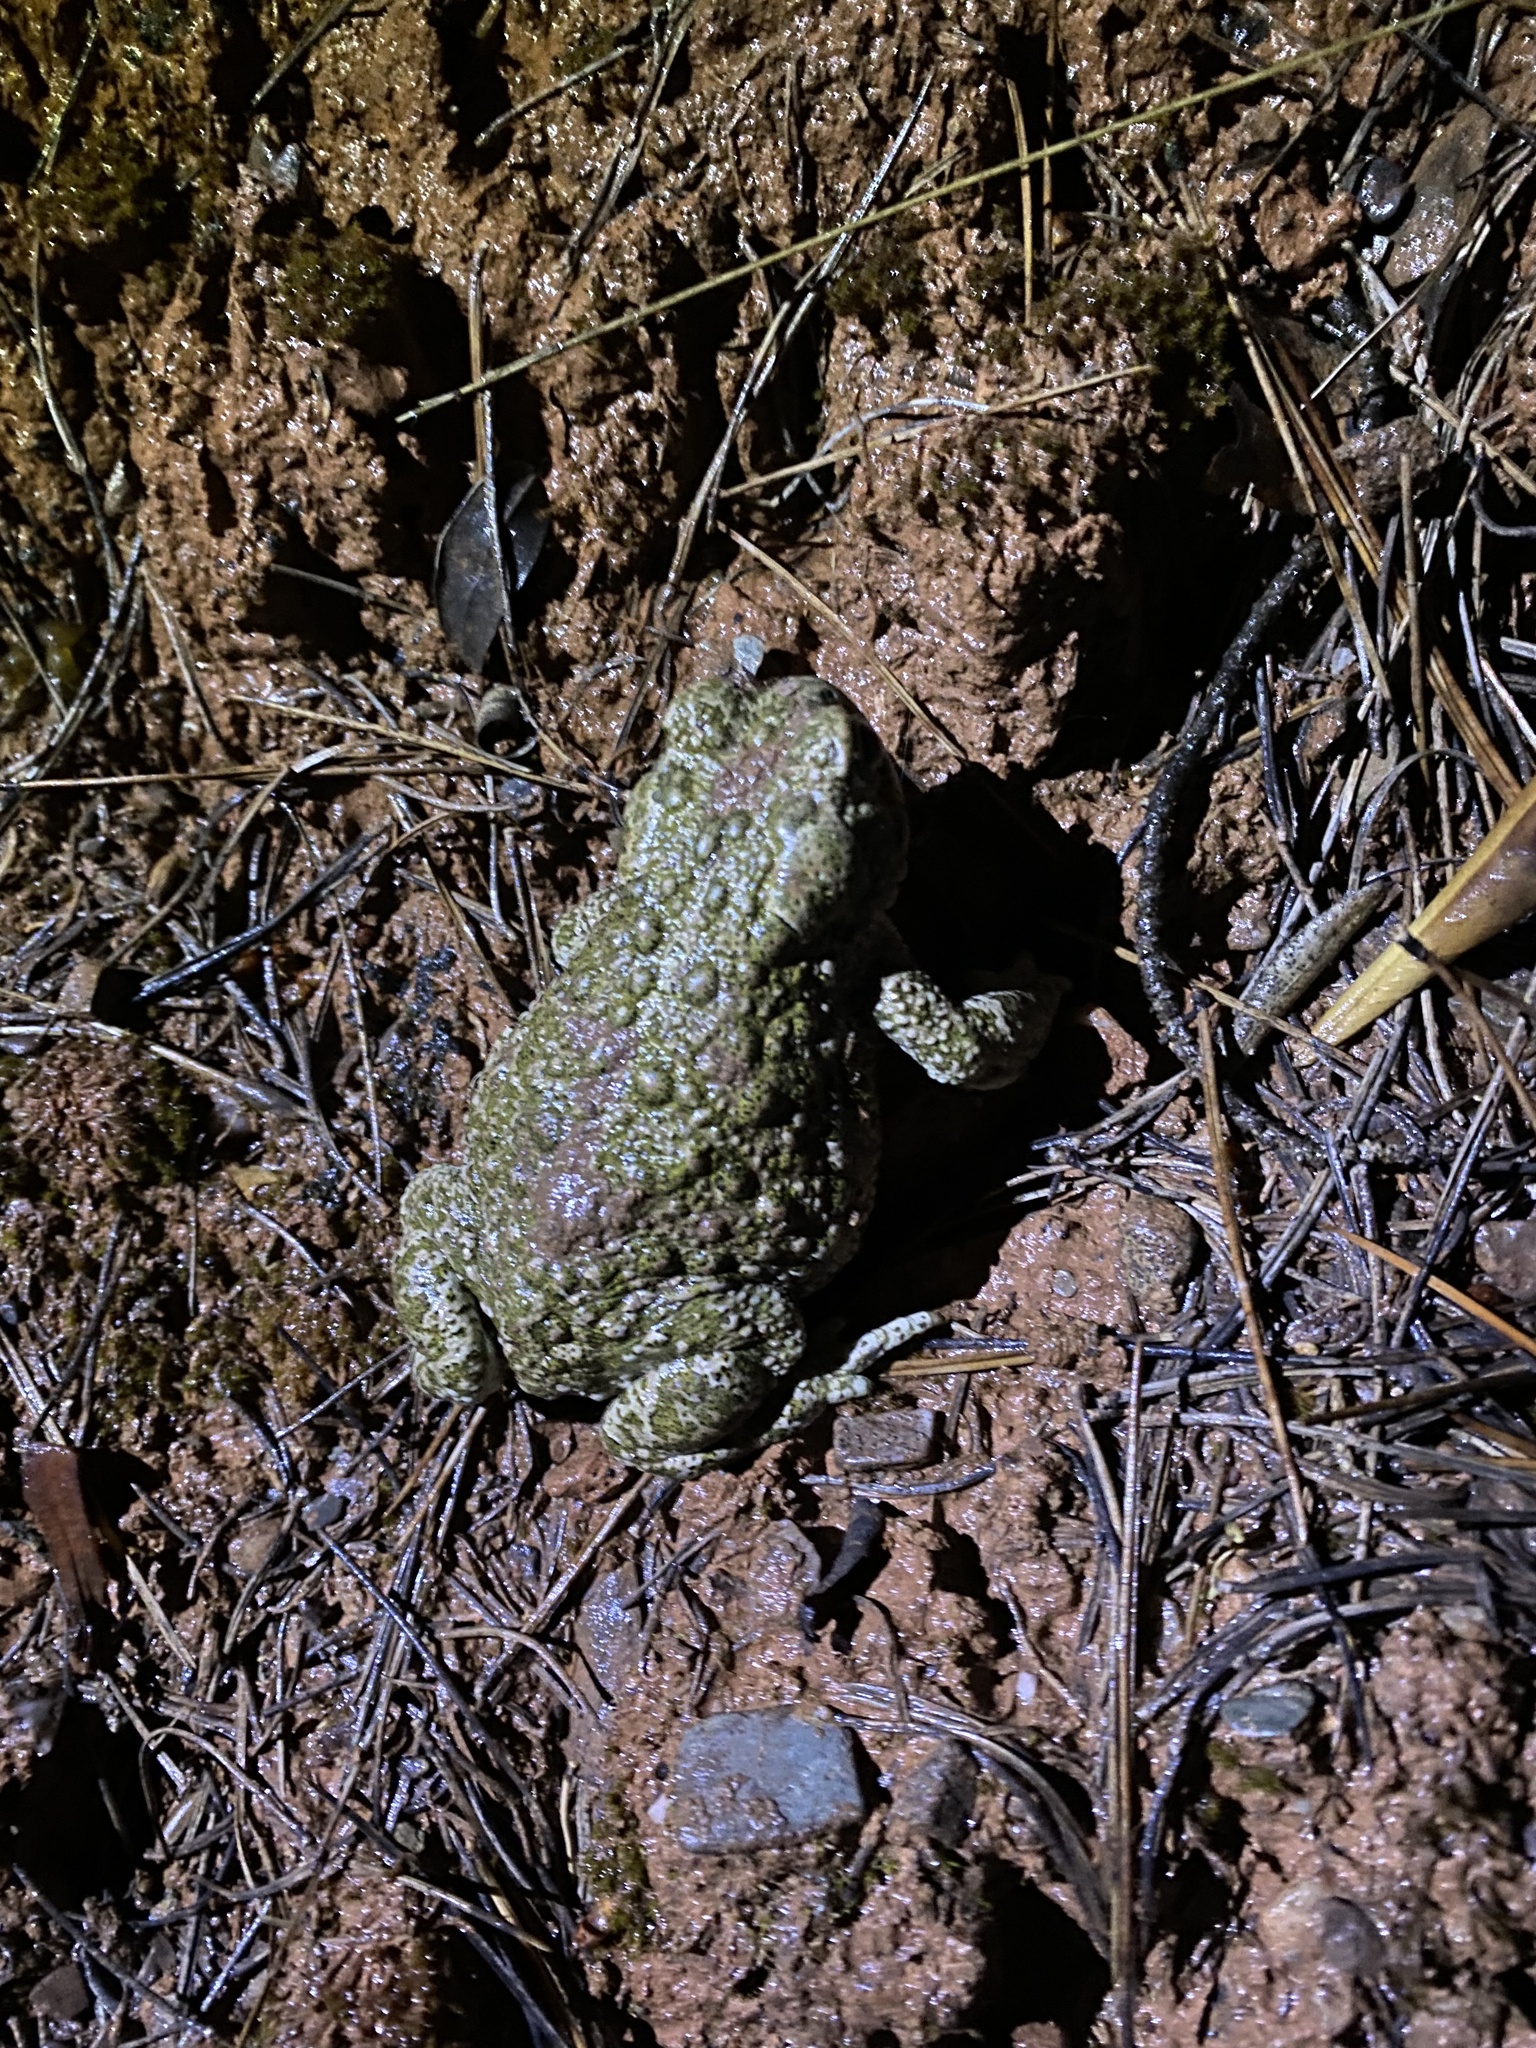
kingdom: Animalia
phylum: Chordata
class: Amphibia
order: Anura
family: Bufonidae
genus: Epidalea
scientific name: Epidalea calamita
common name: Natterjack toad
